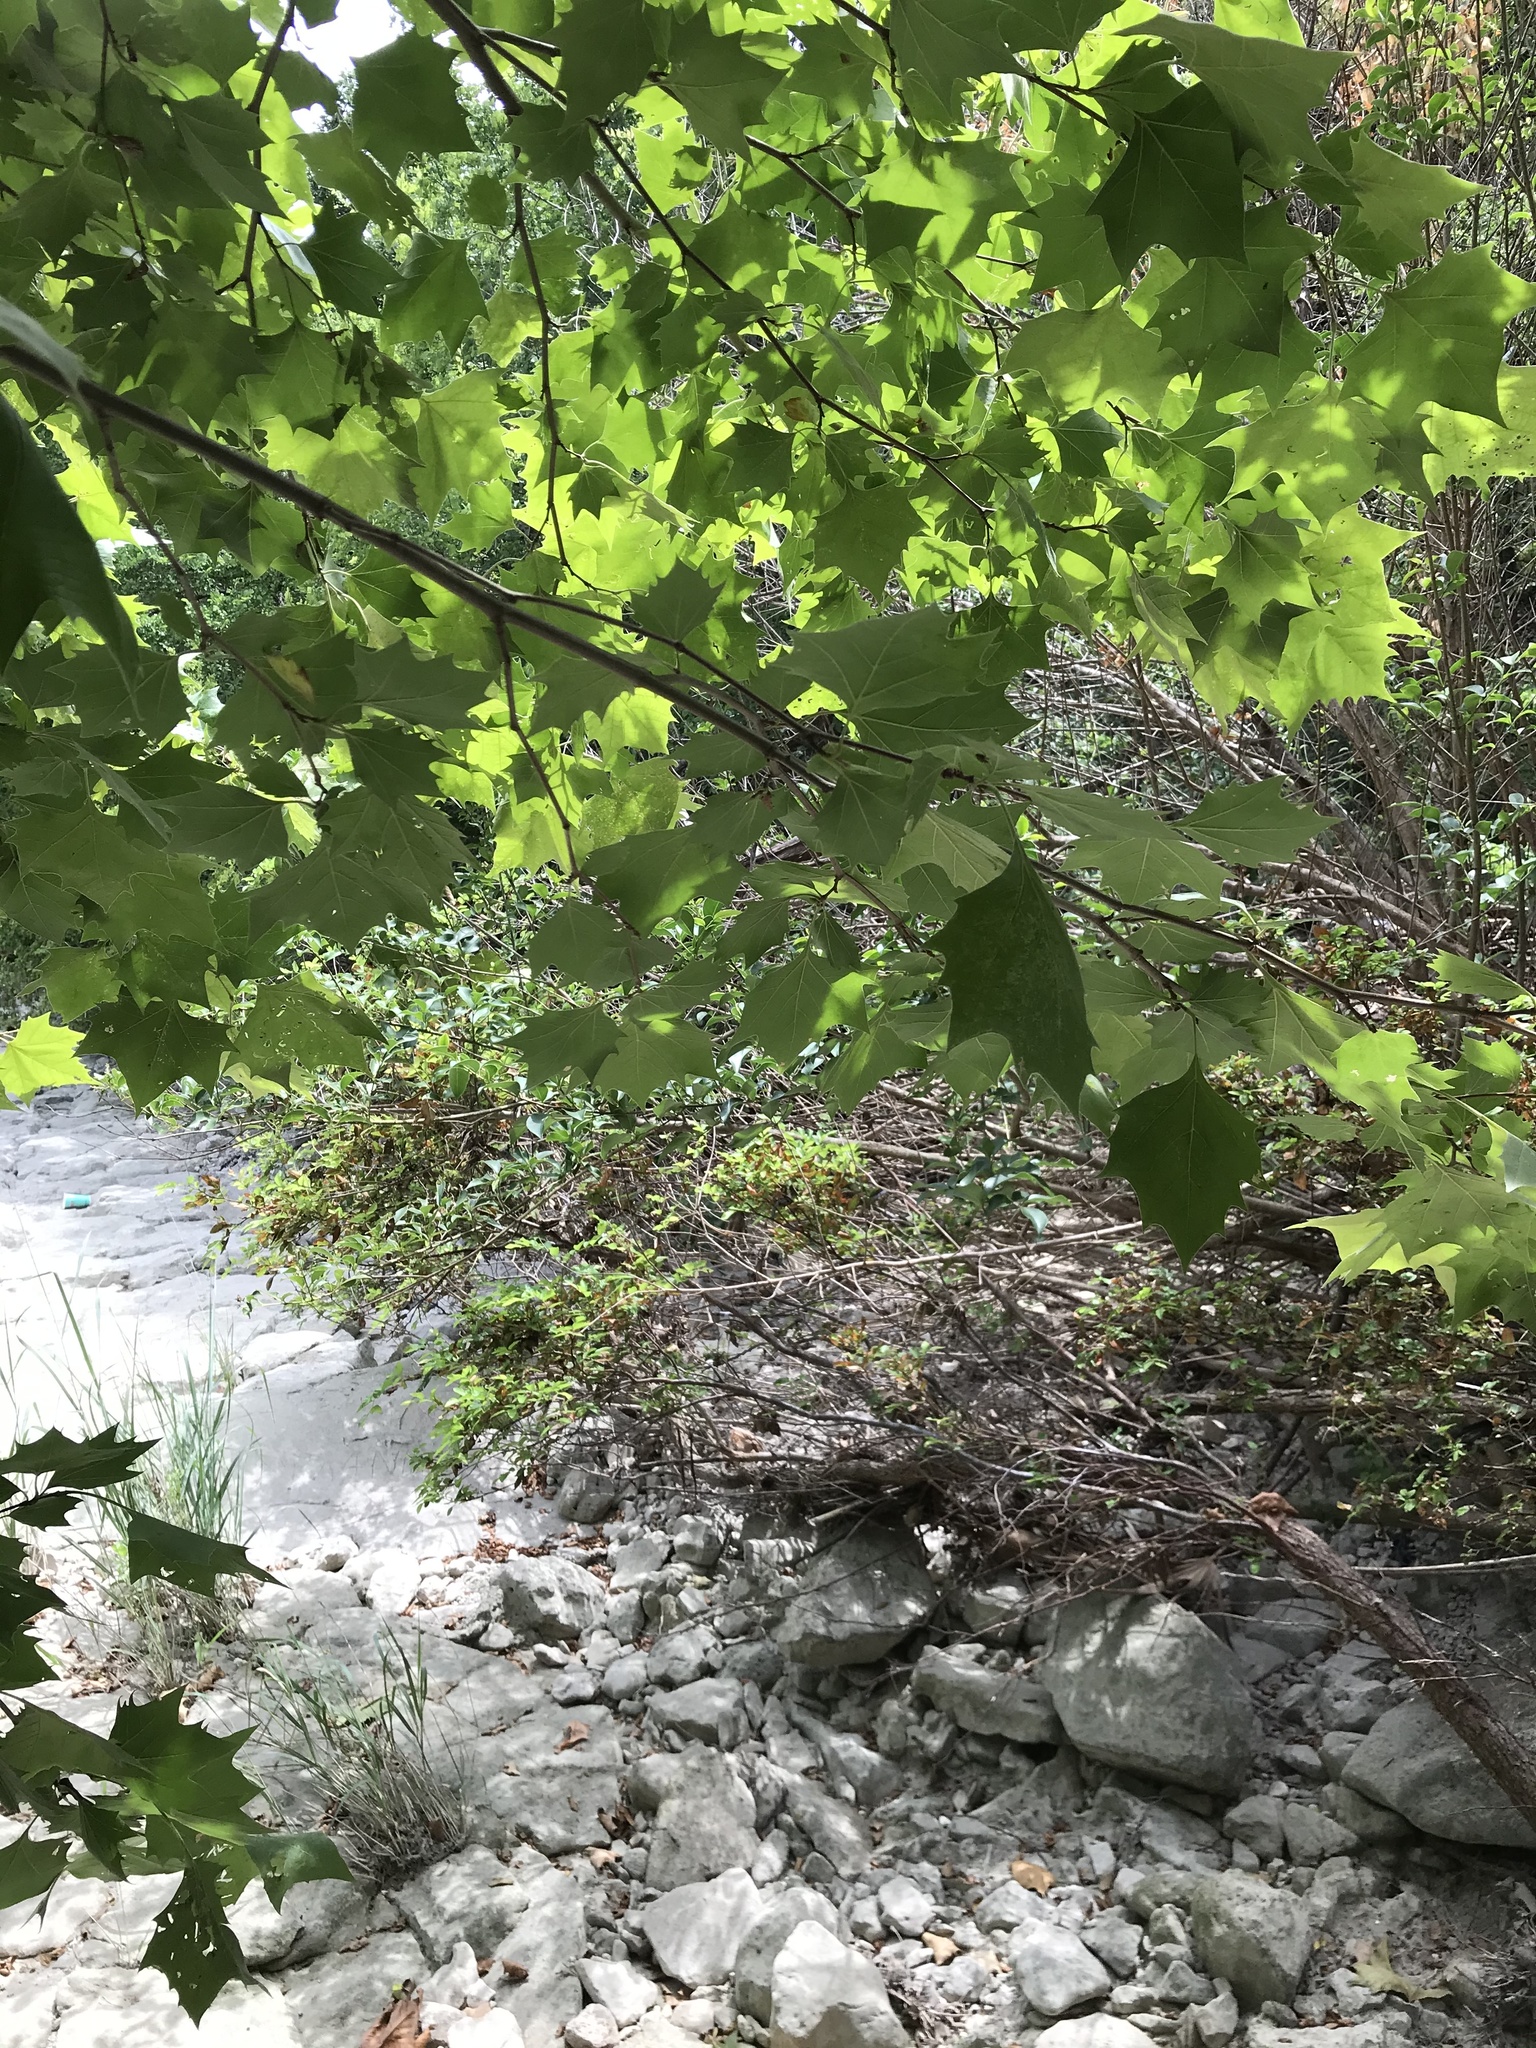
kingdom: Plantae
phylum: Tracheophyta
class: Magnoliopsida
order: Proteales
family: Platanaceae
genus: Platanus
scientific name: Platanus occidentalis
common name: American sycamore
